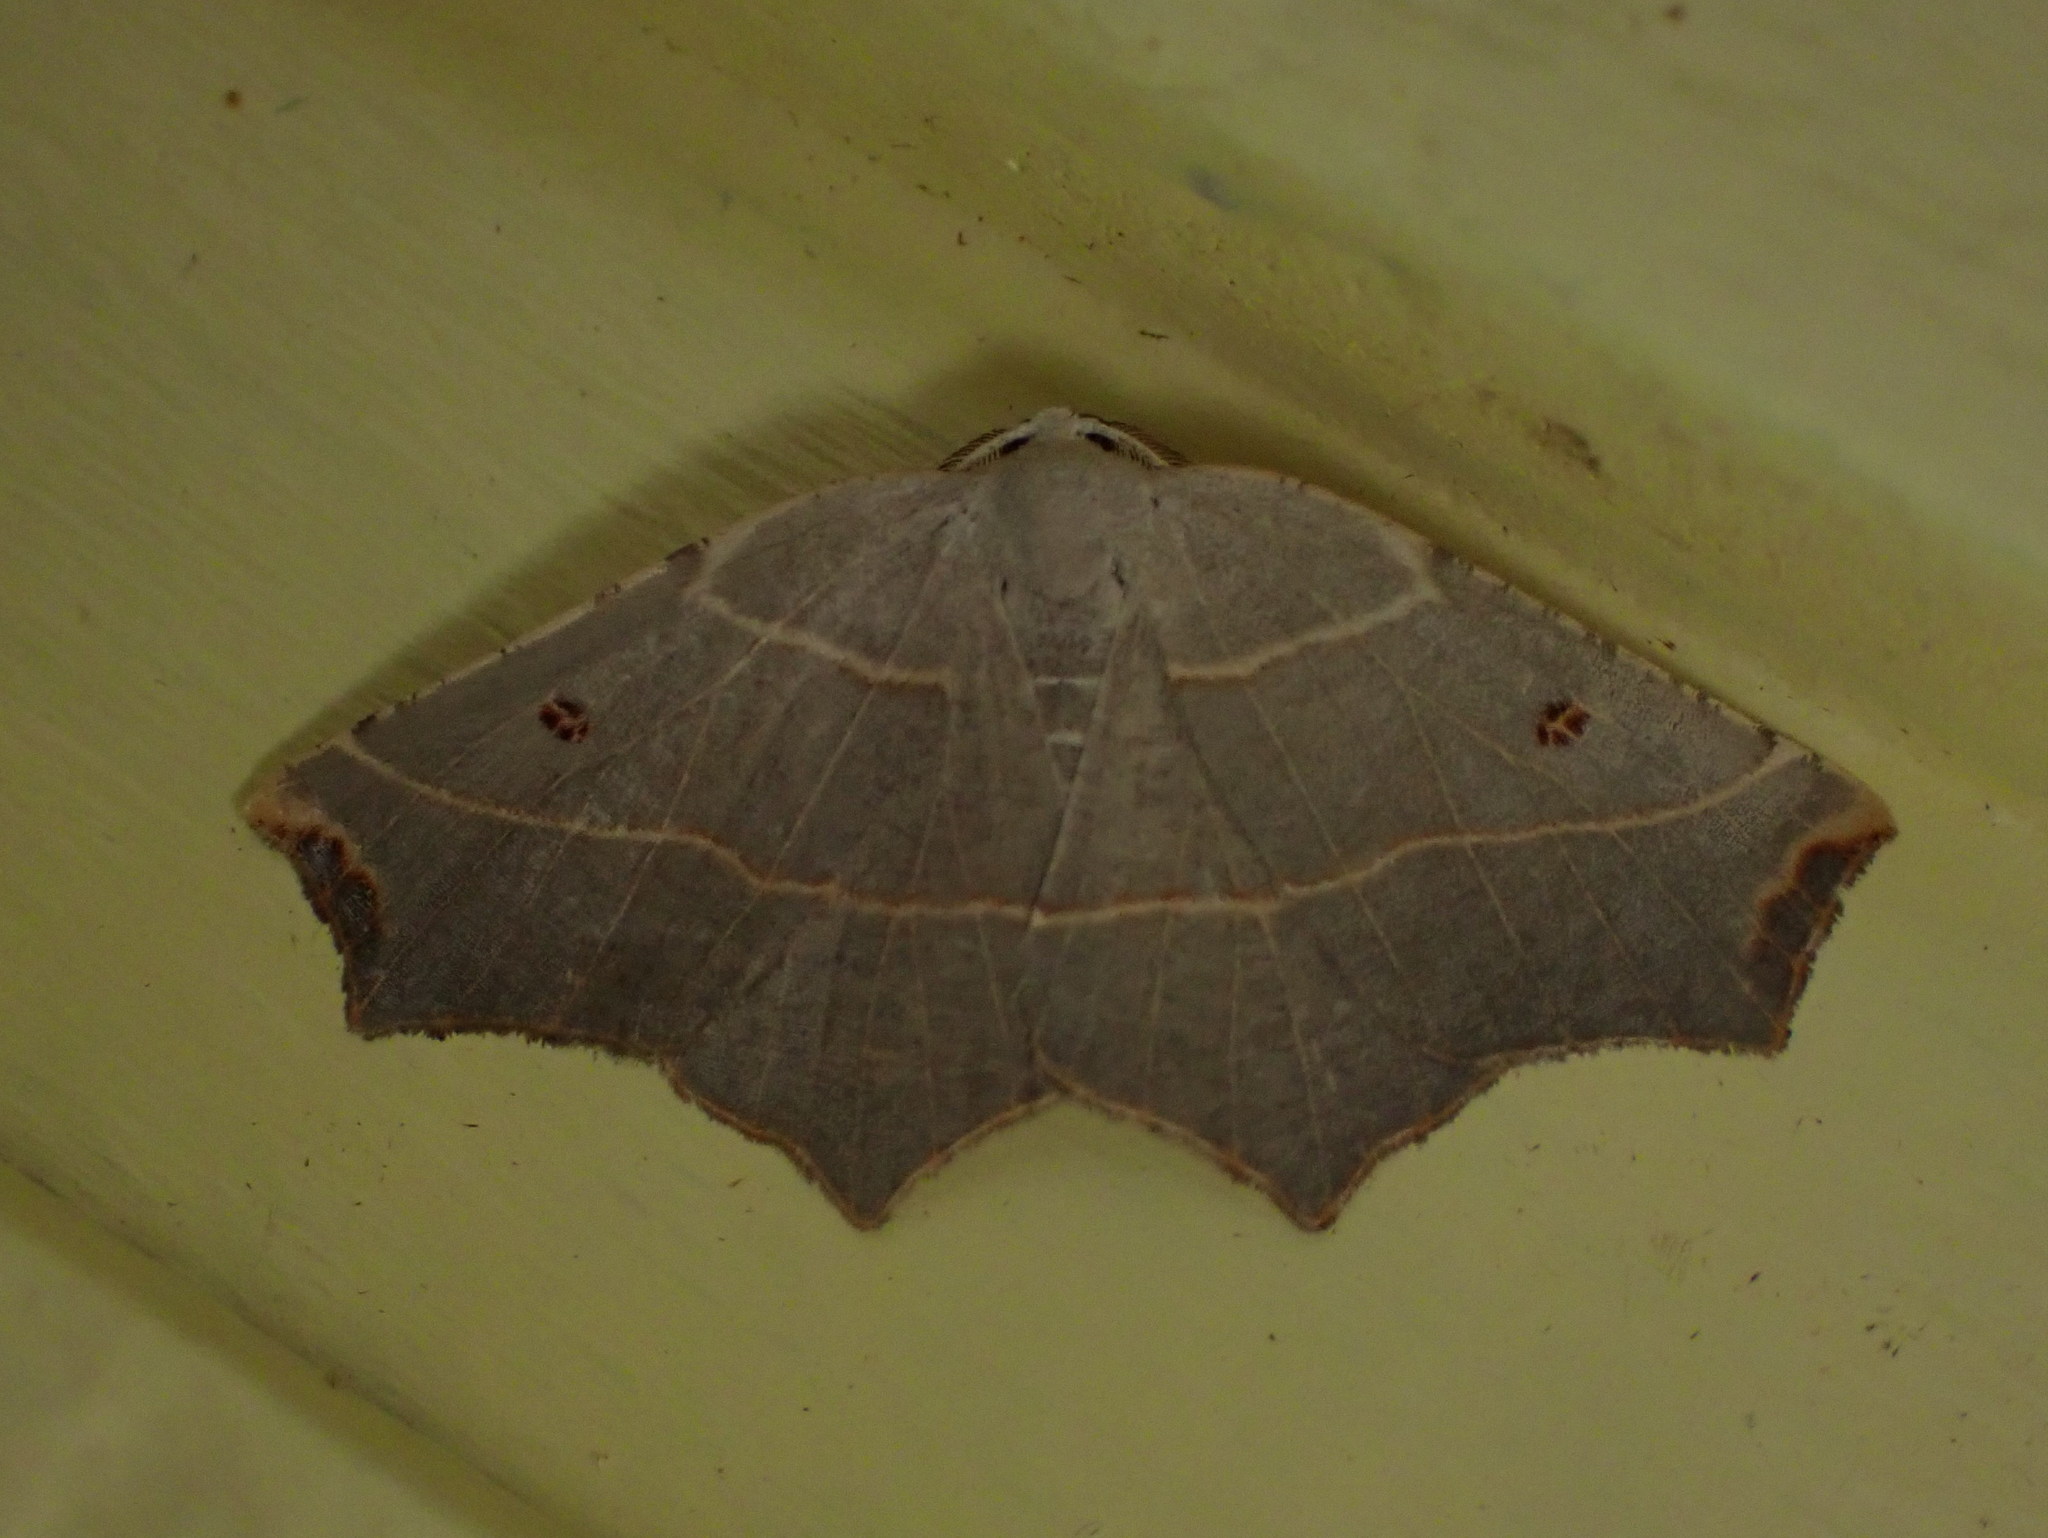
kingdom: Animalia
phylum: Arthropoda
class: Insecta
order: Lepidoptera
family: Geometridae
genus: Metanema
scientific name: Metanema inatomaria
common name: Pale metanema
